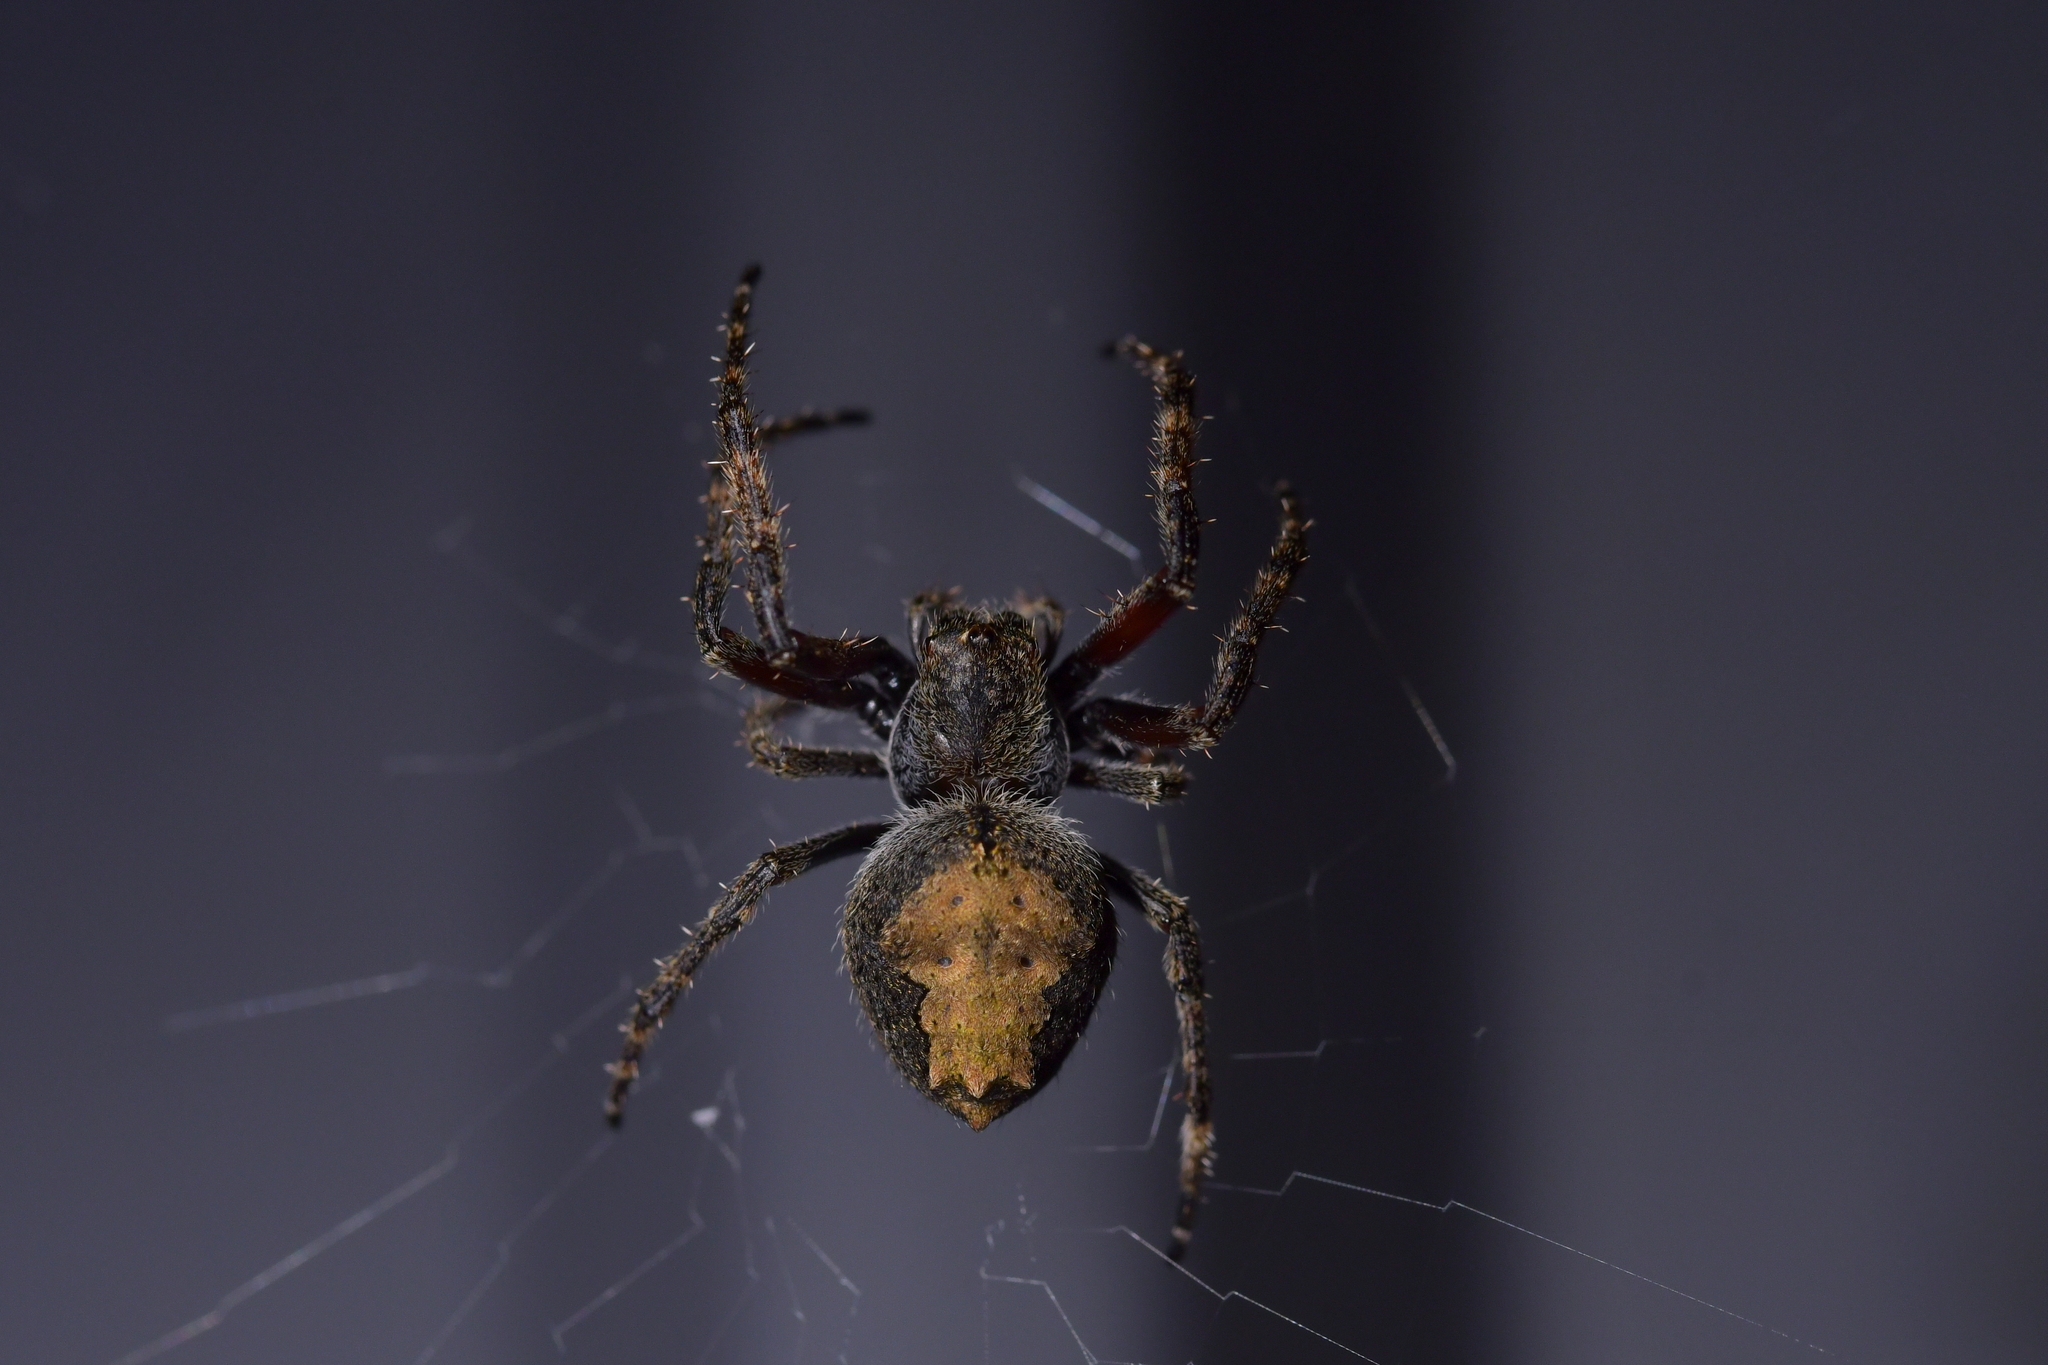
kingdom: Animalia
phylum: Arthropoda
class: Arachnida
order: Araneae
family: Araneidae
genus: Eriophora
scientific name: Eriophora pustulosa
